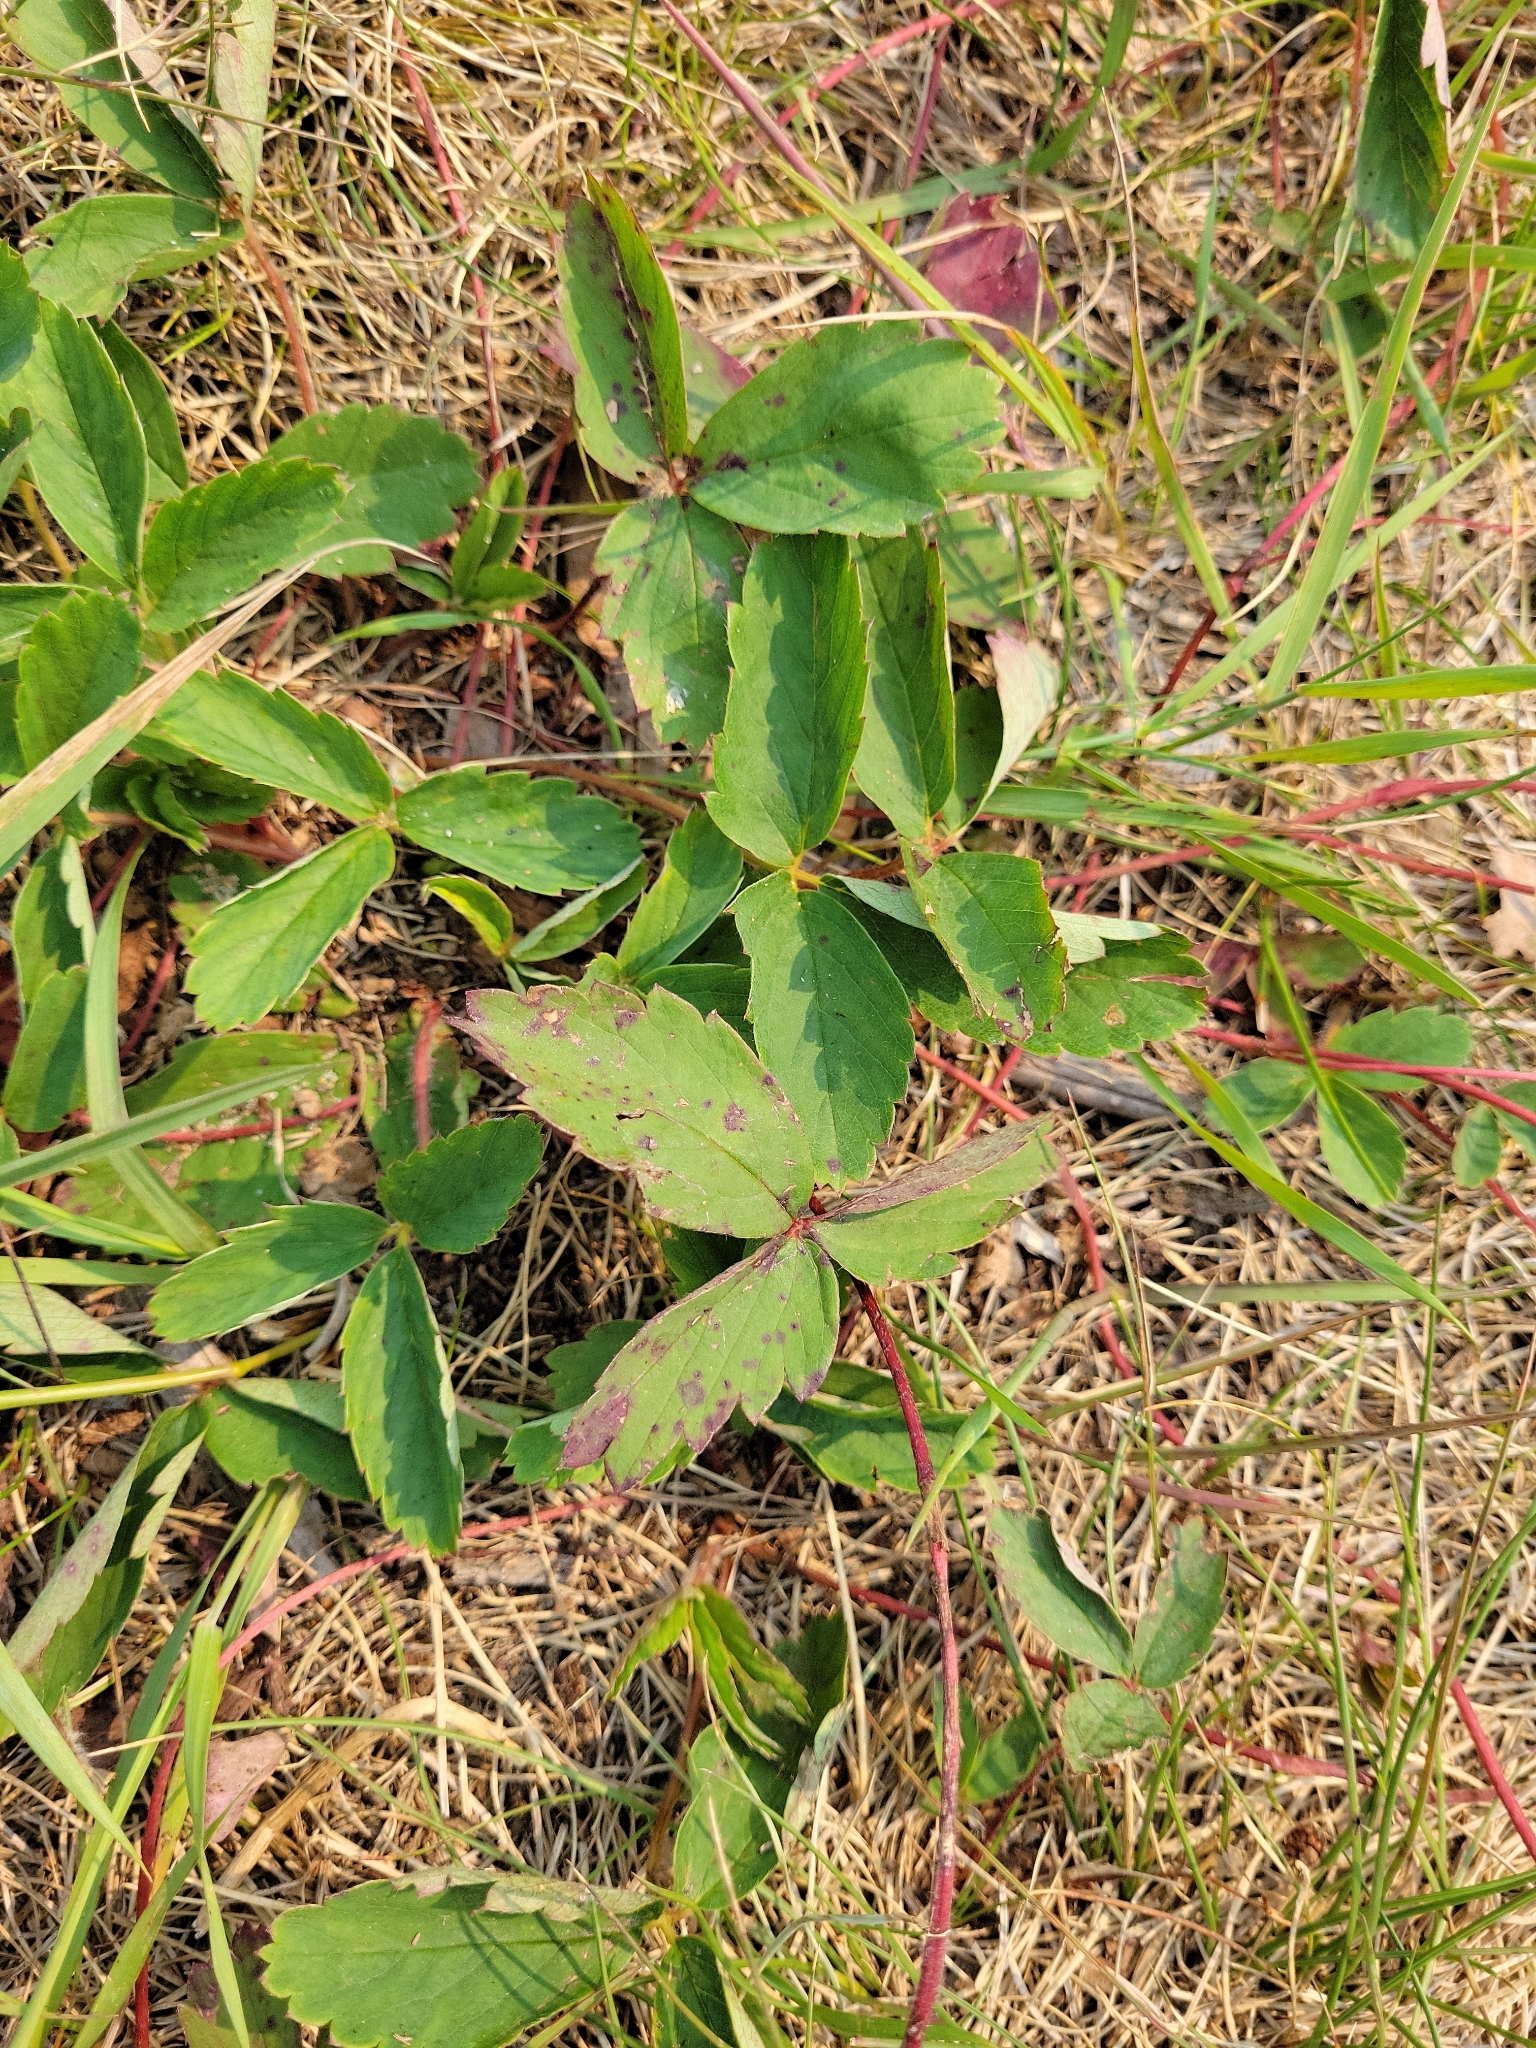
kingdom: Plantae
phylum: Tracheophyta
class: Magnoliopsida
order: Rosales
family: Rosaceae
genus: Fragaria
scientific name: Fragaria virginiana
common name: Thickleaved wild strawberry
